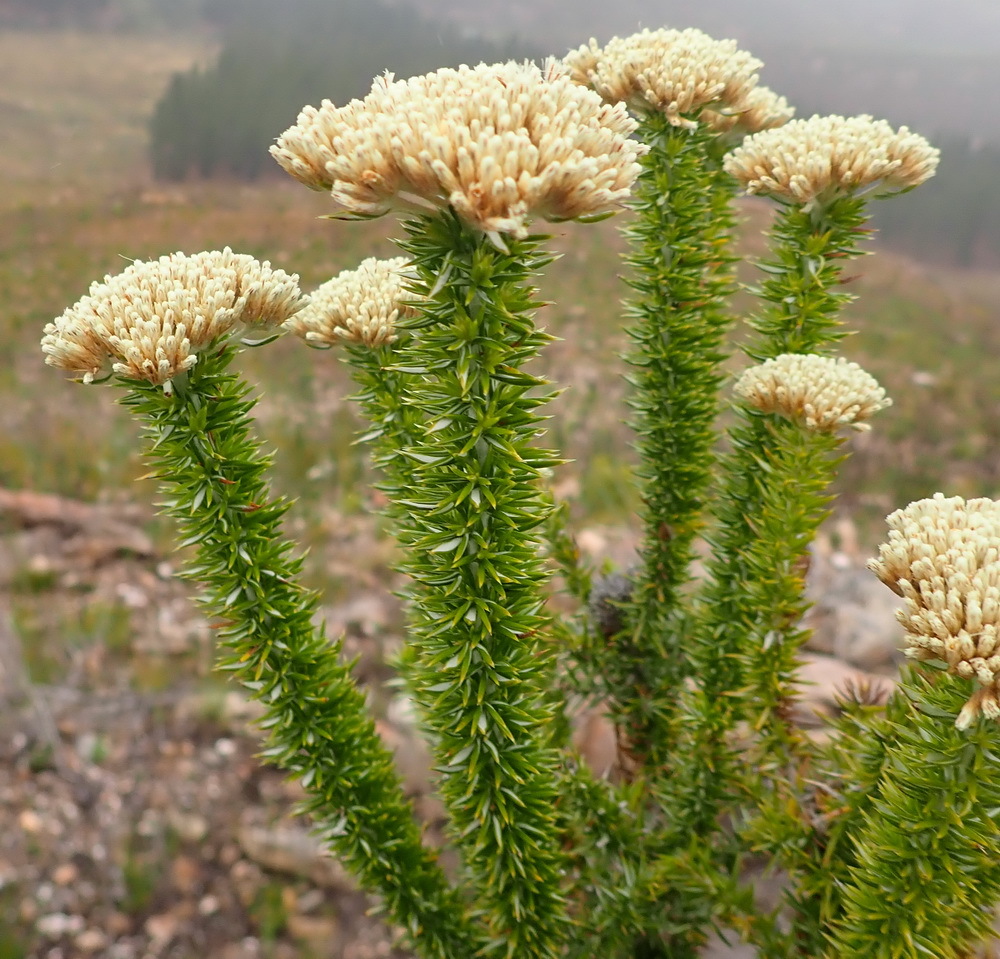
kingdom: Plantae
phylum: Tracheophyta
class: Magnoliopsida
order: Asterales
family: Asteraceae
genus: Metalasia
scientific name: Metalasia trivialis
